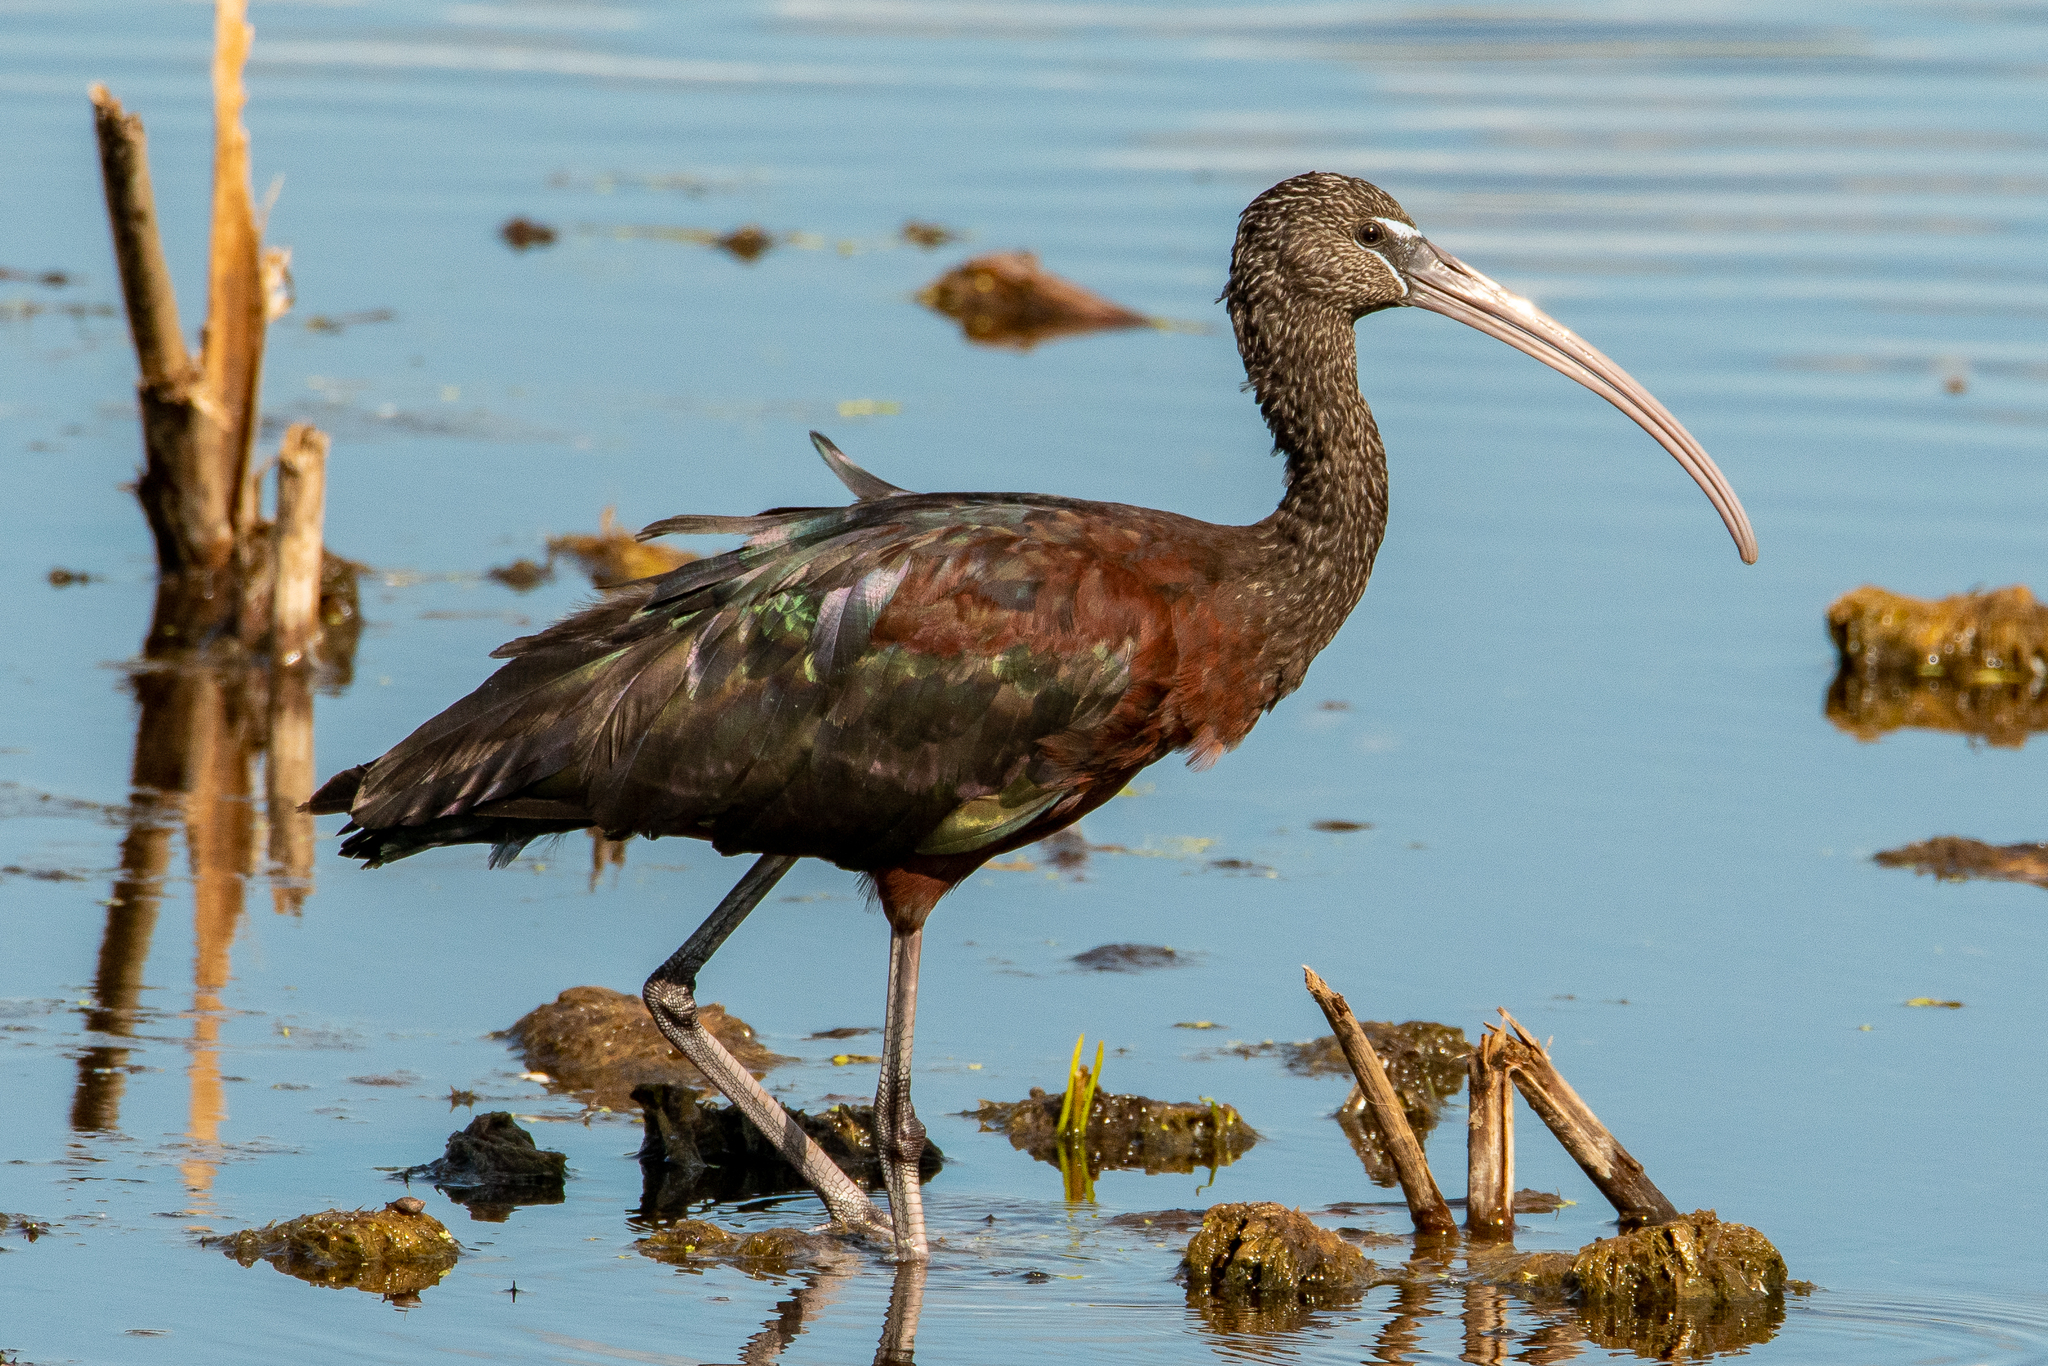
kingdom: Animalia
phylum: Chordata
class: Aves
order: Pelecaniformes
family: Threskiornithidae
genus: Plegadis
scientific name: Plegadis falcinellus
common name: Glossy ibis
